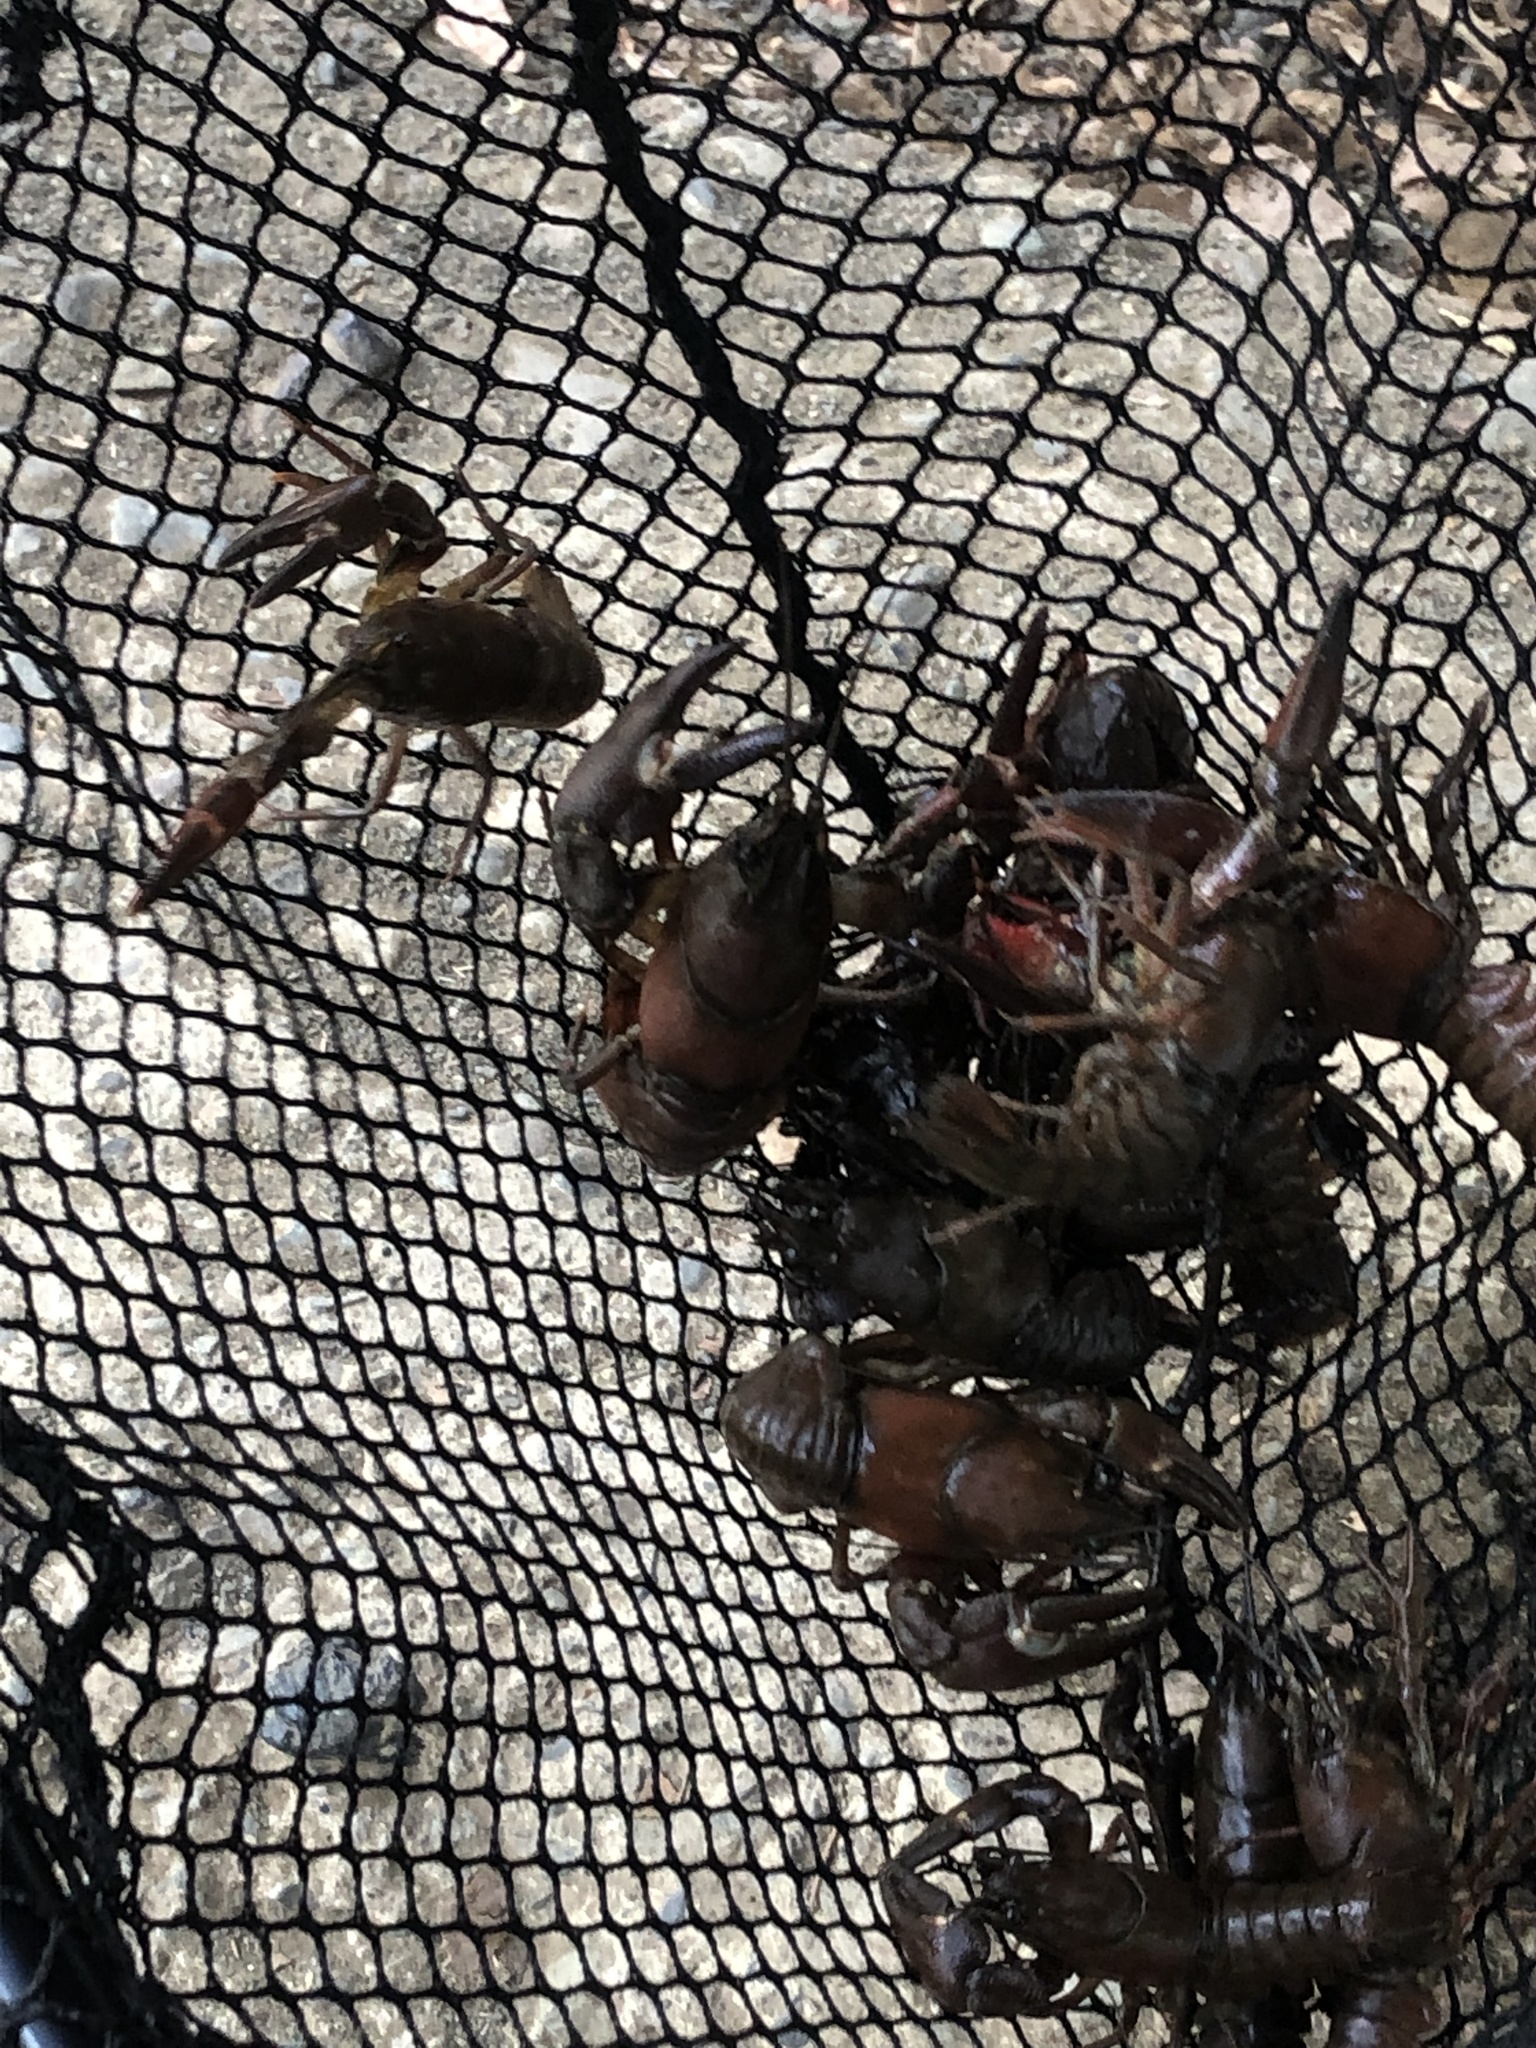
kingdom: Animalia
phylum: Arthropoda
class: Malacostraca
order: Decapoda
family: Astacidae
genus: Pacifastacus
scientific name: Pacifastacus leniusculus
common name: Signal crayfish
